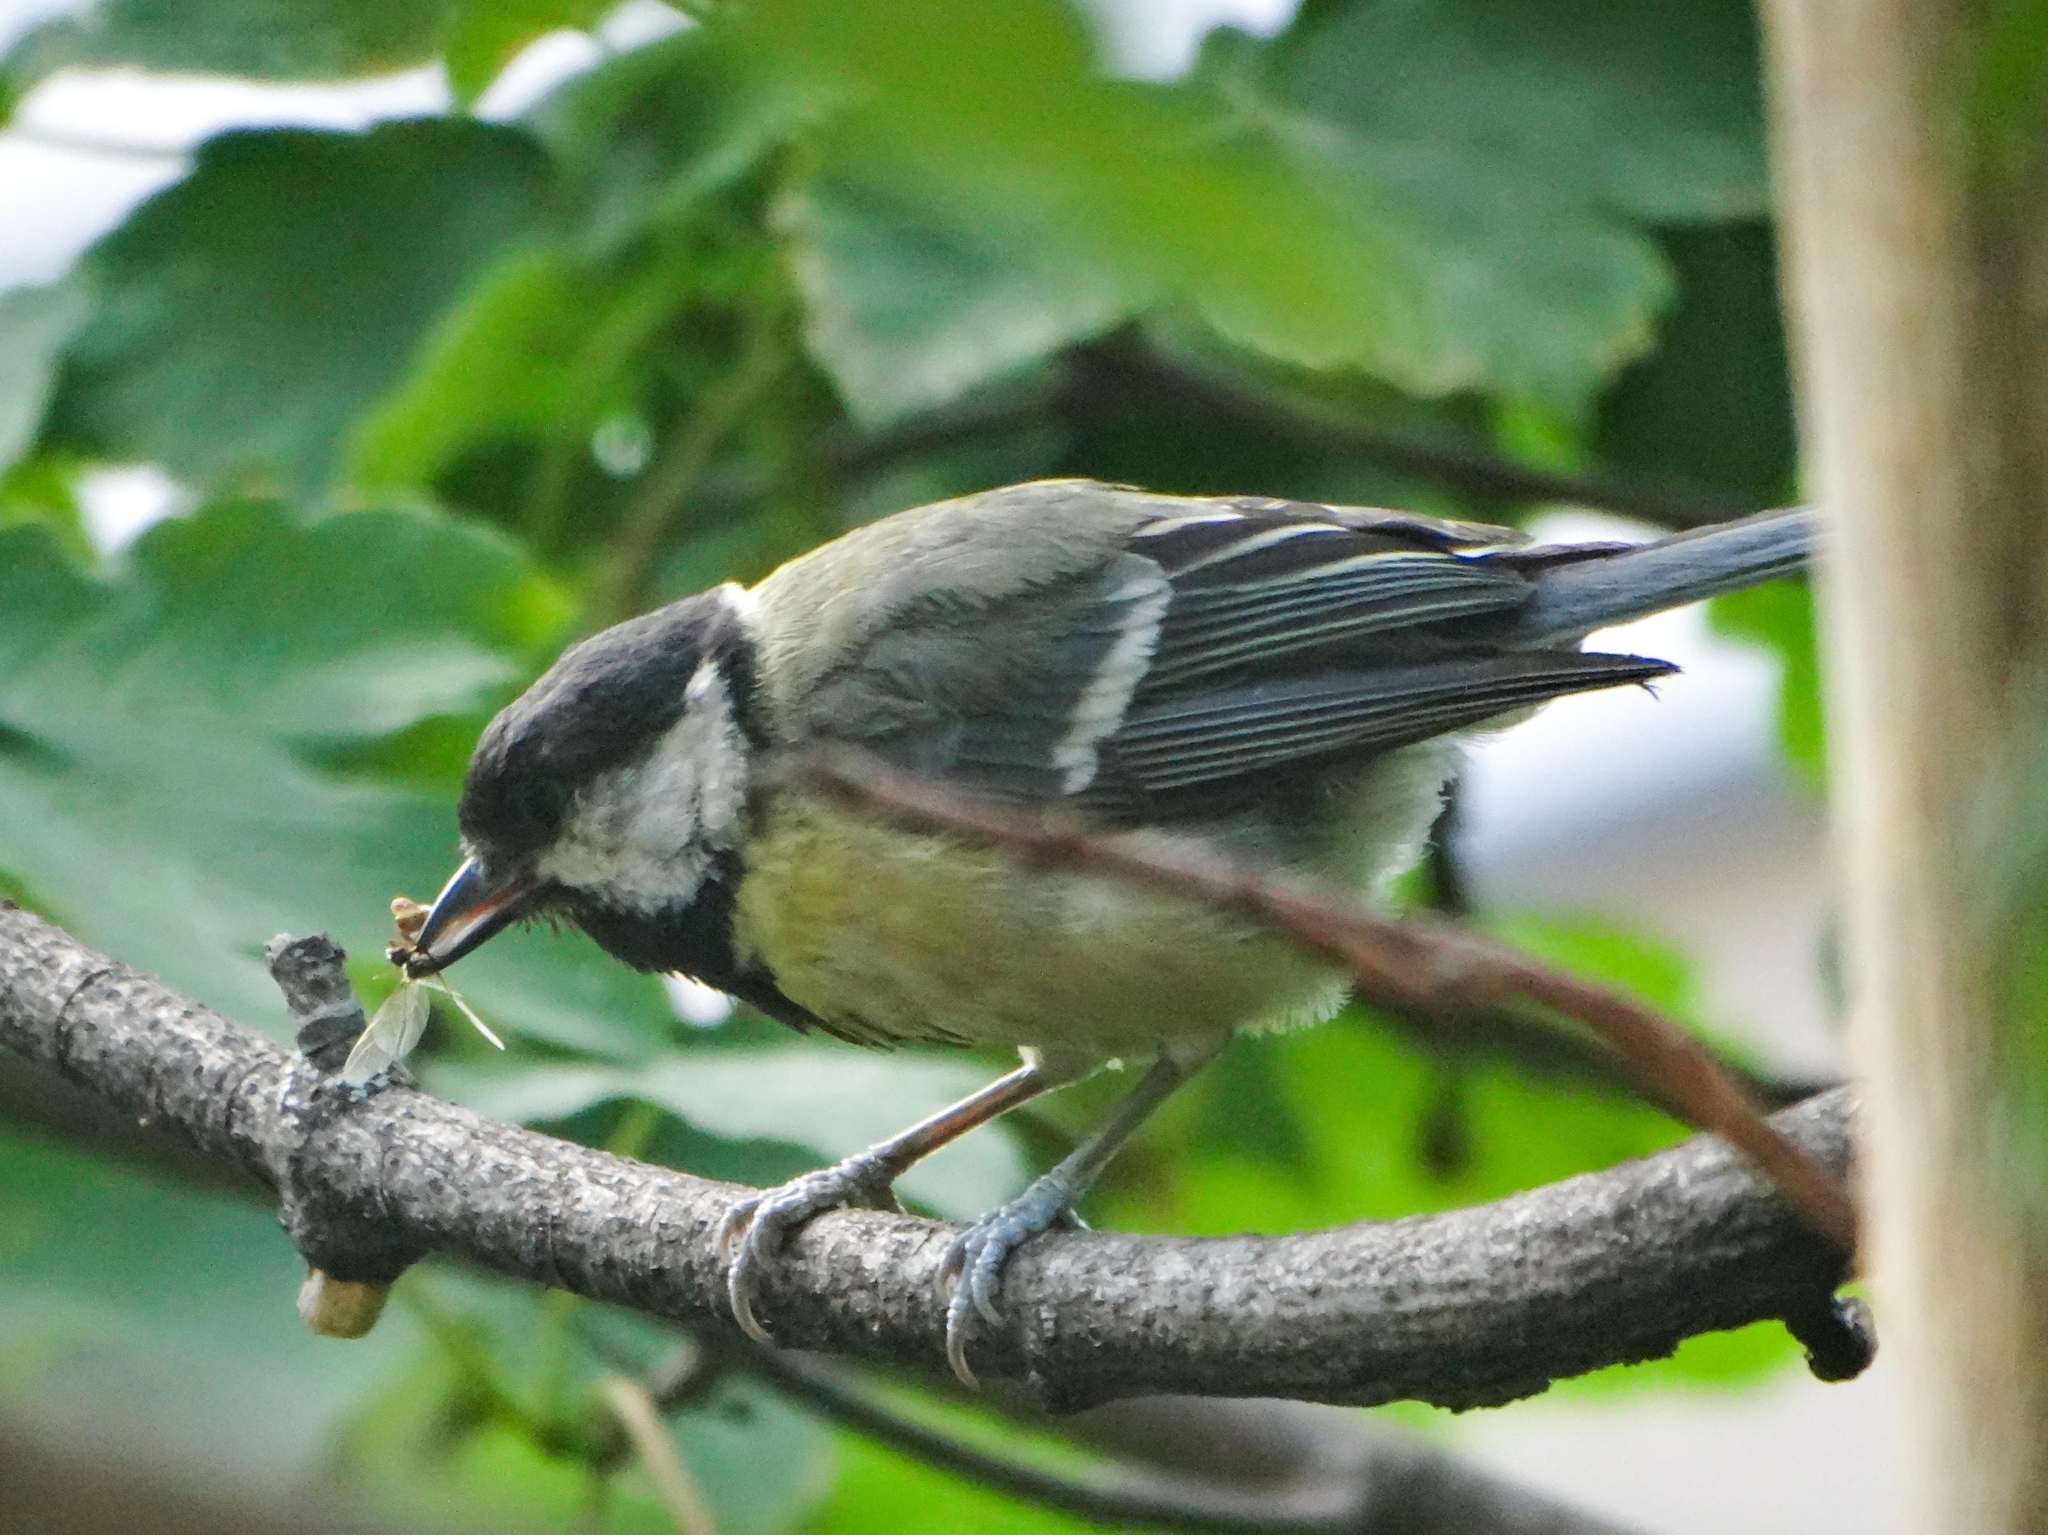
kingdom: Animalia
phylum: Chordata
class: Aves
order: Passeriformes
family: Paridae
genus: Parus
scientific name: Parus major
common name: Great tit
